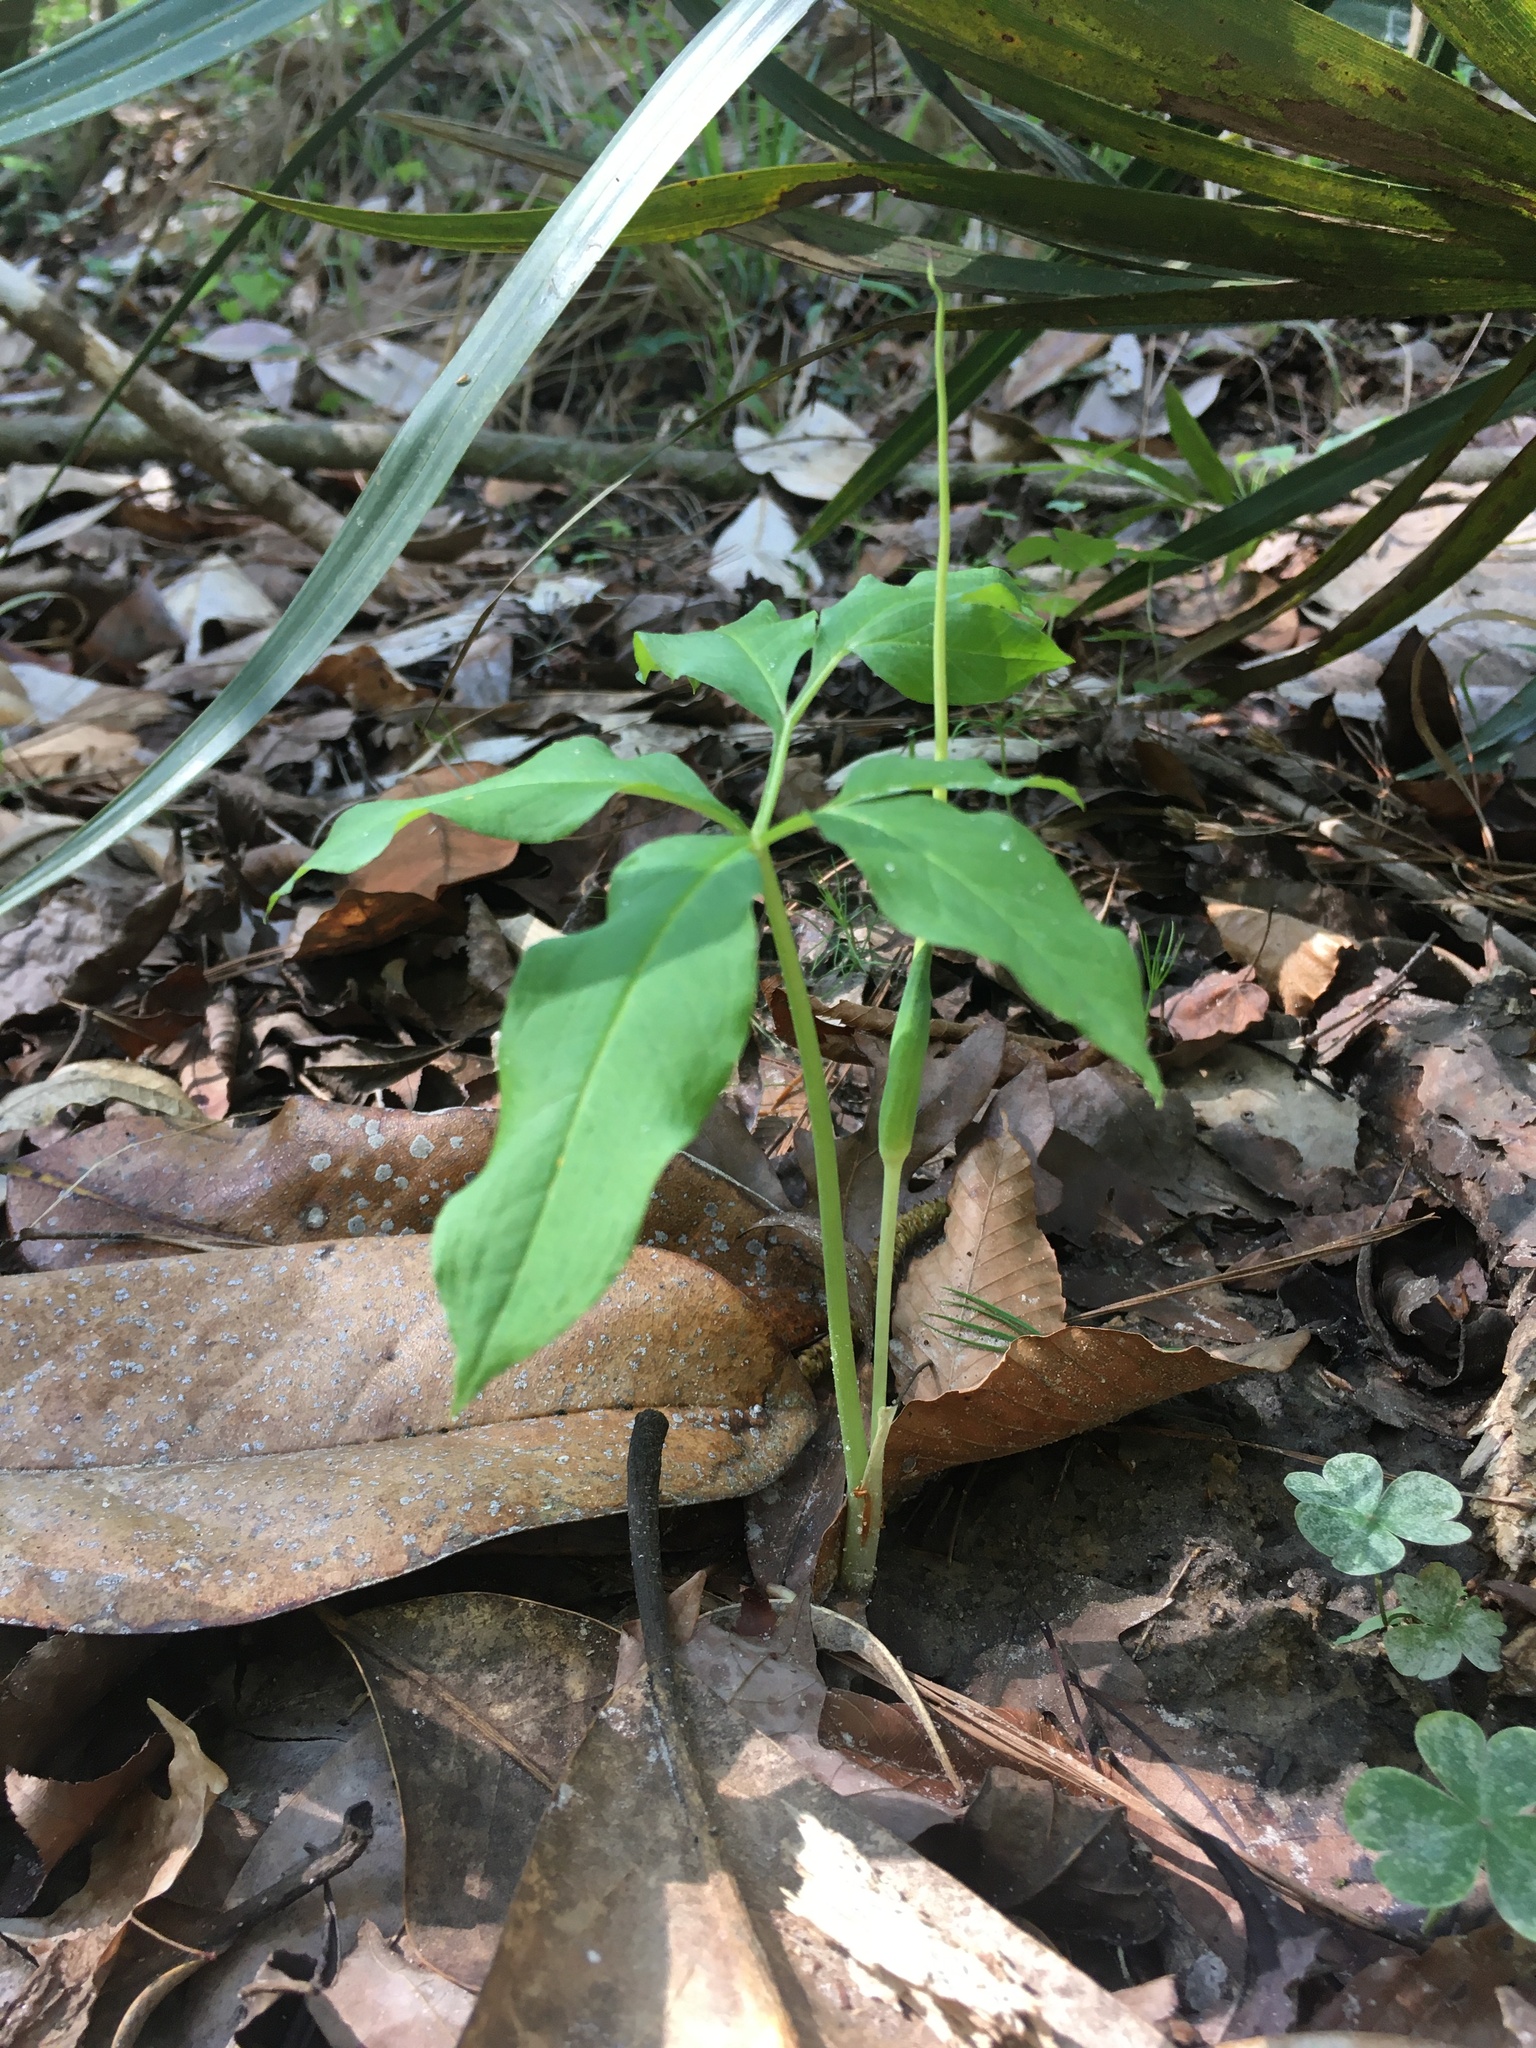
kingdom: Plantae
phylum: Tracheophyta
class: Liliopsida
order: Alismatales
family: Araceae
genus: Arisaema
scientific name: Arisaema dracontium
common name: Dragon-arum
